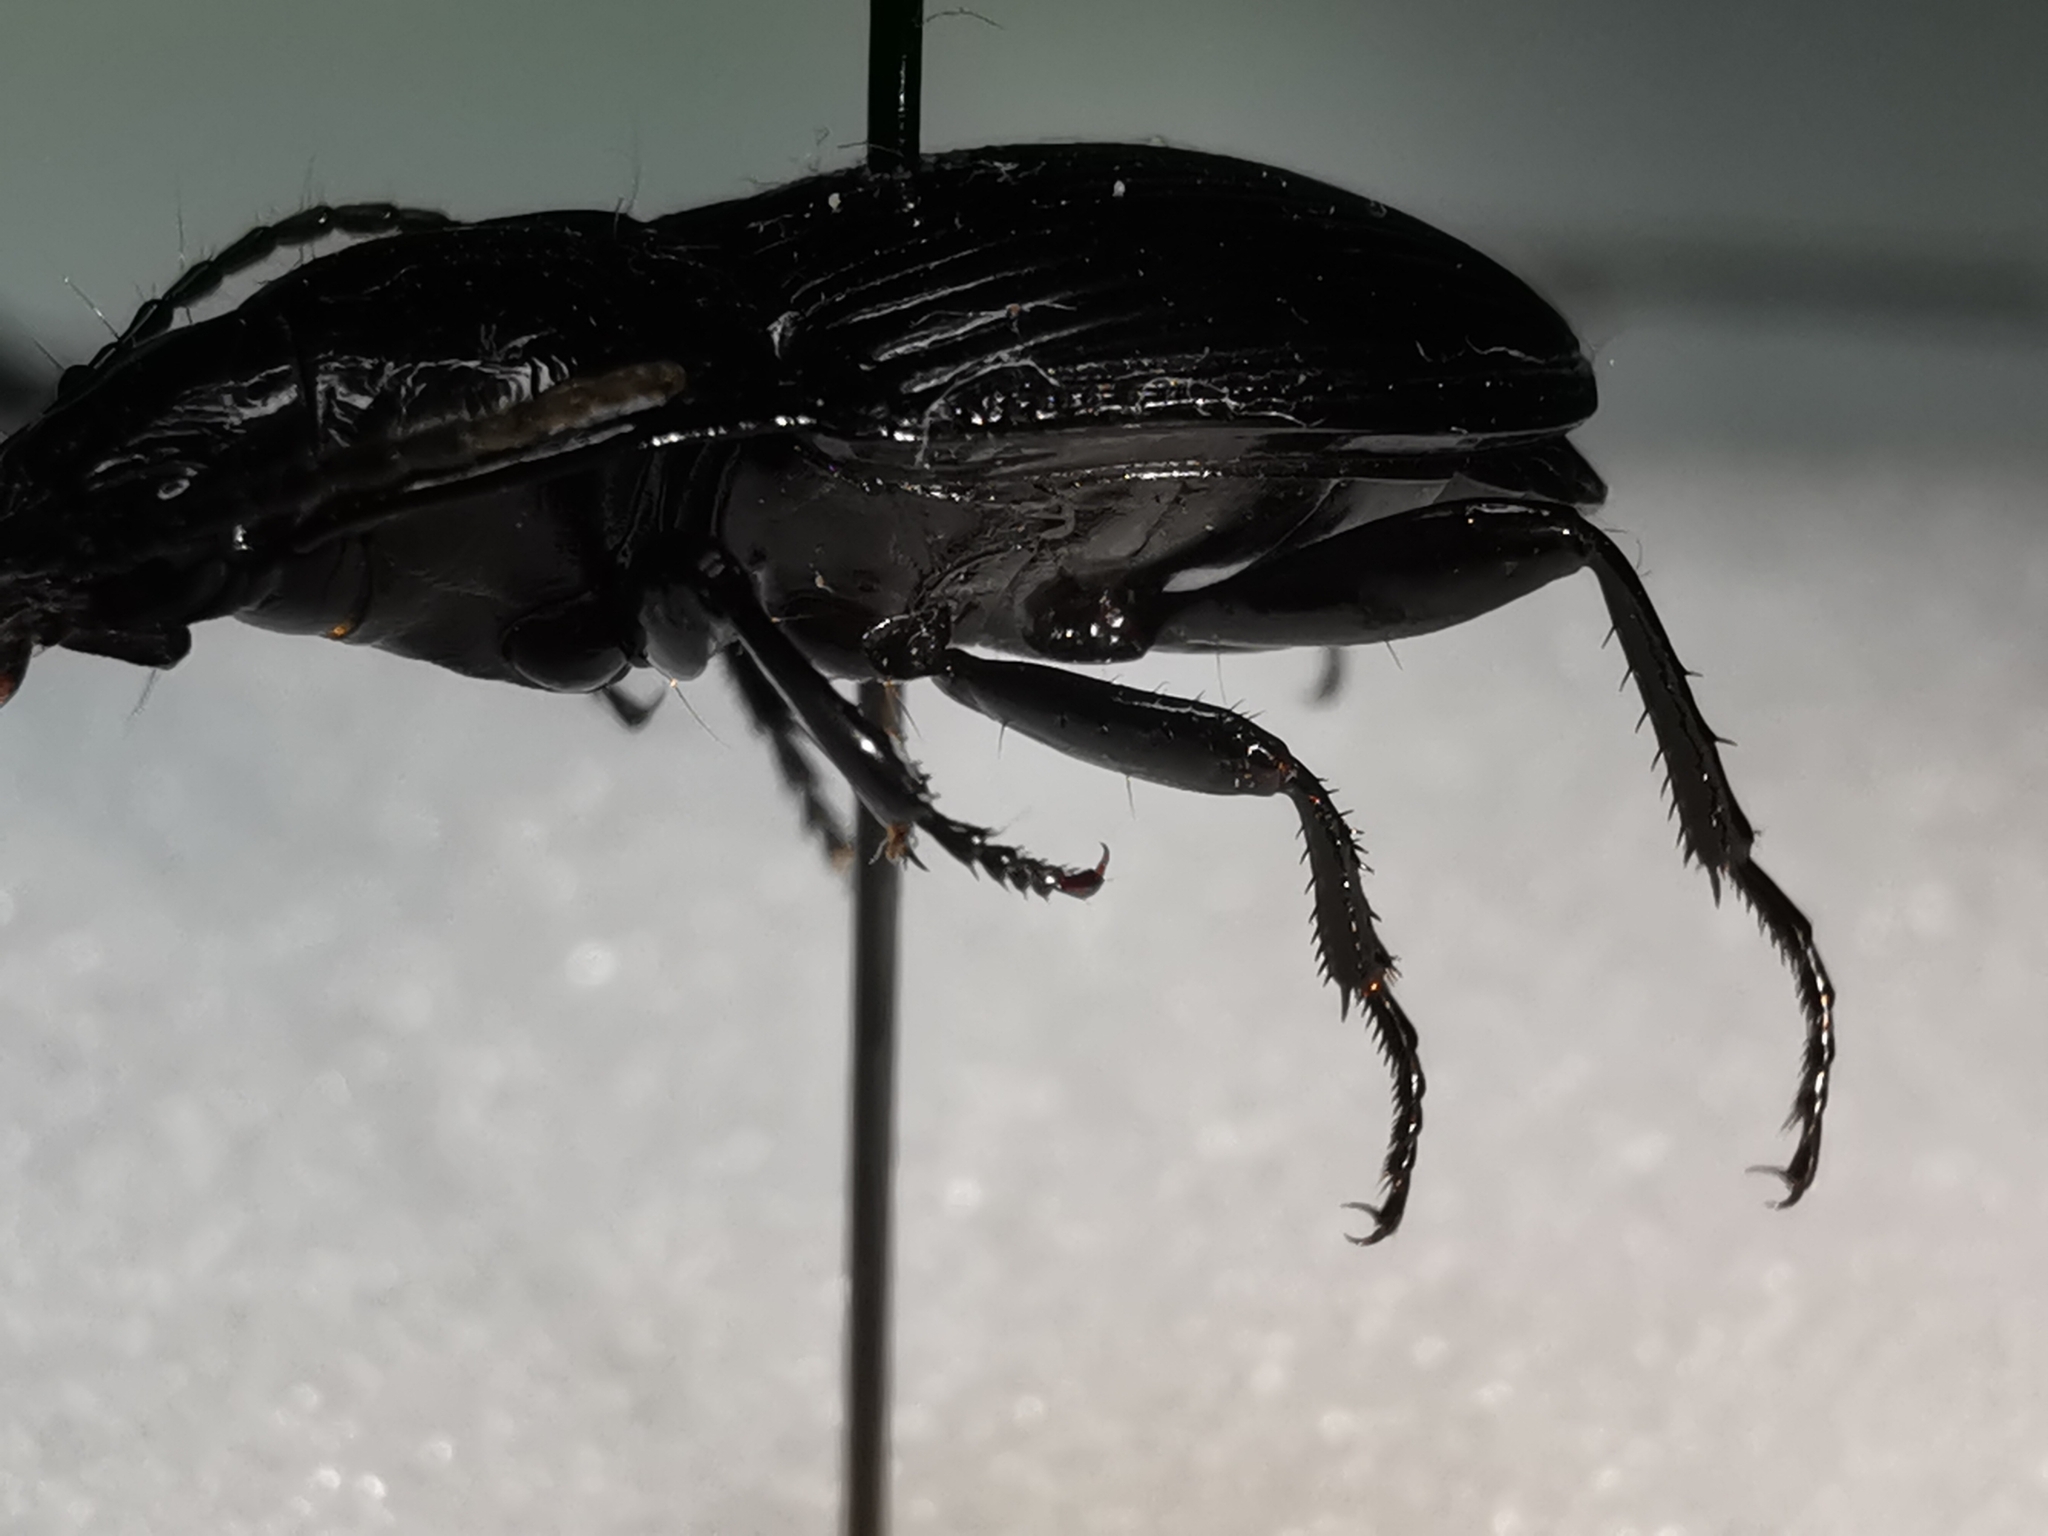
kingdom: Animalia
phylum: Arthropoda
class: Insecta
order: Coleoptera
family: Carabidae
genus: Abax
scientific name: Abax ovalis
